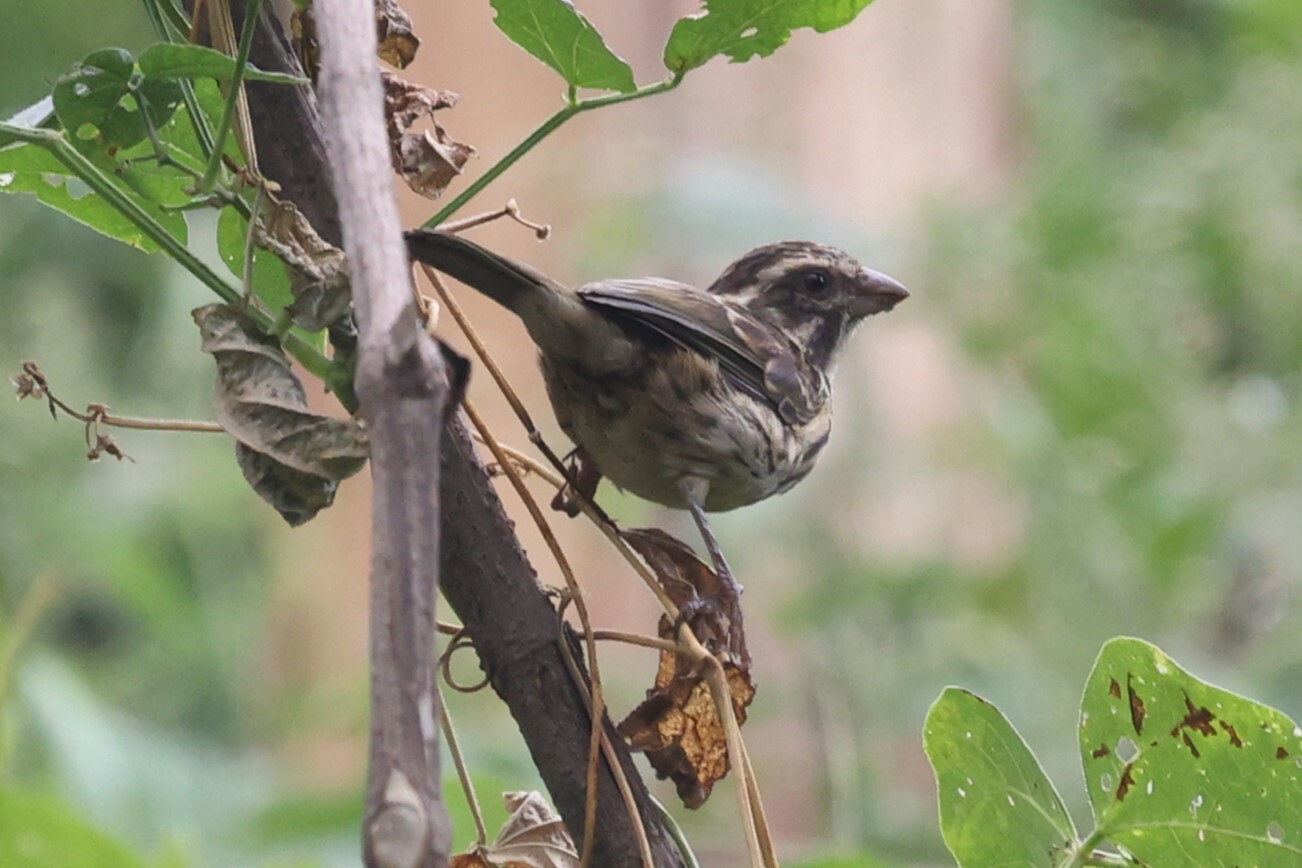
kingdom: Animalia
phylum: Chordata
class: Aves
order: Passeriformes
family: Fringillidae
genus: Crithagra
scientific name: Crithagra striolata
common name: Streaky seedeater
